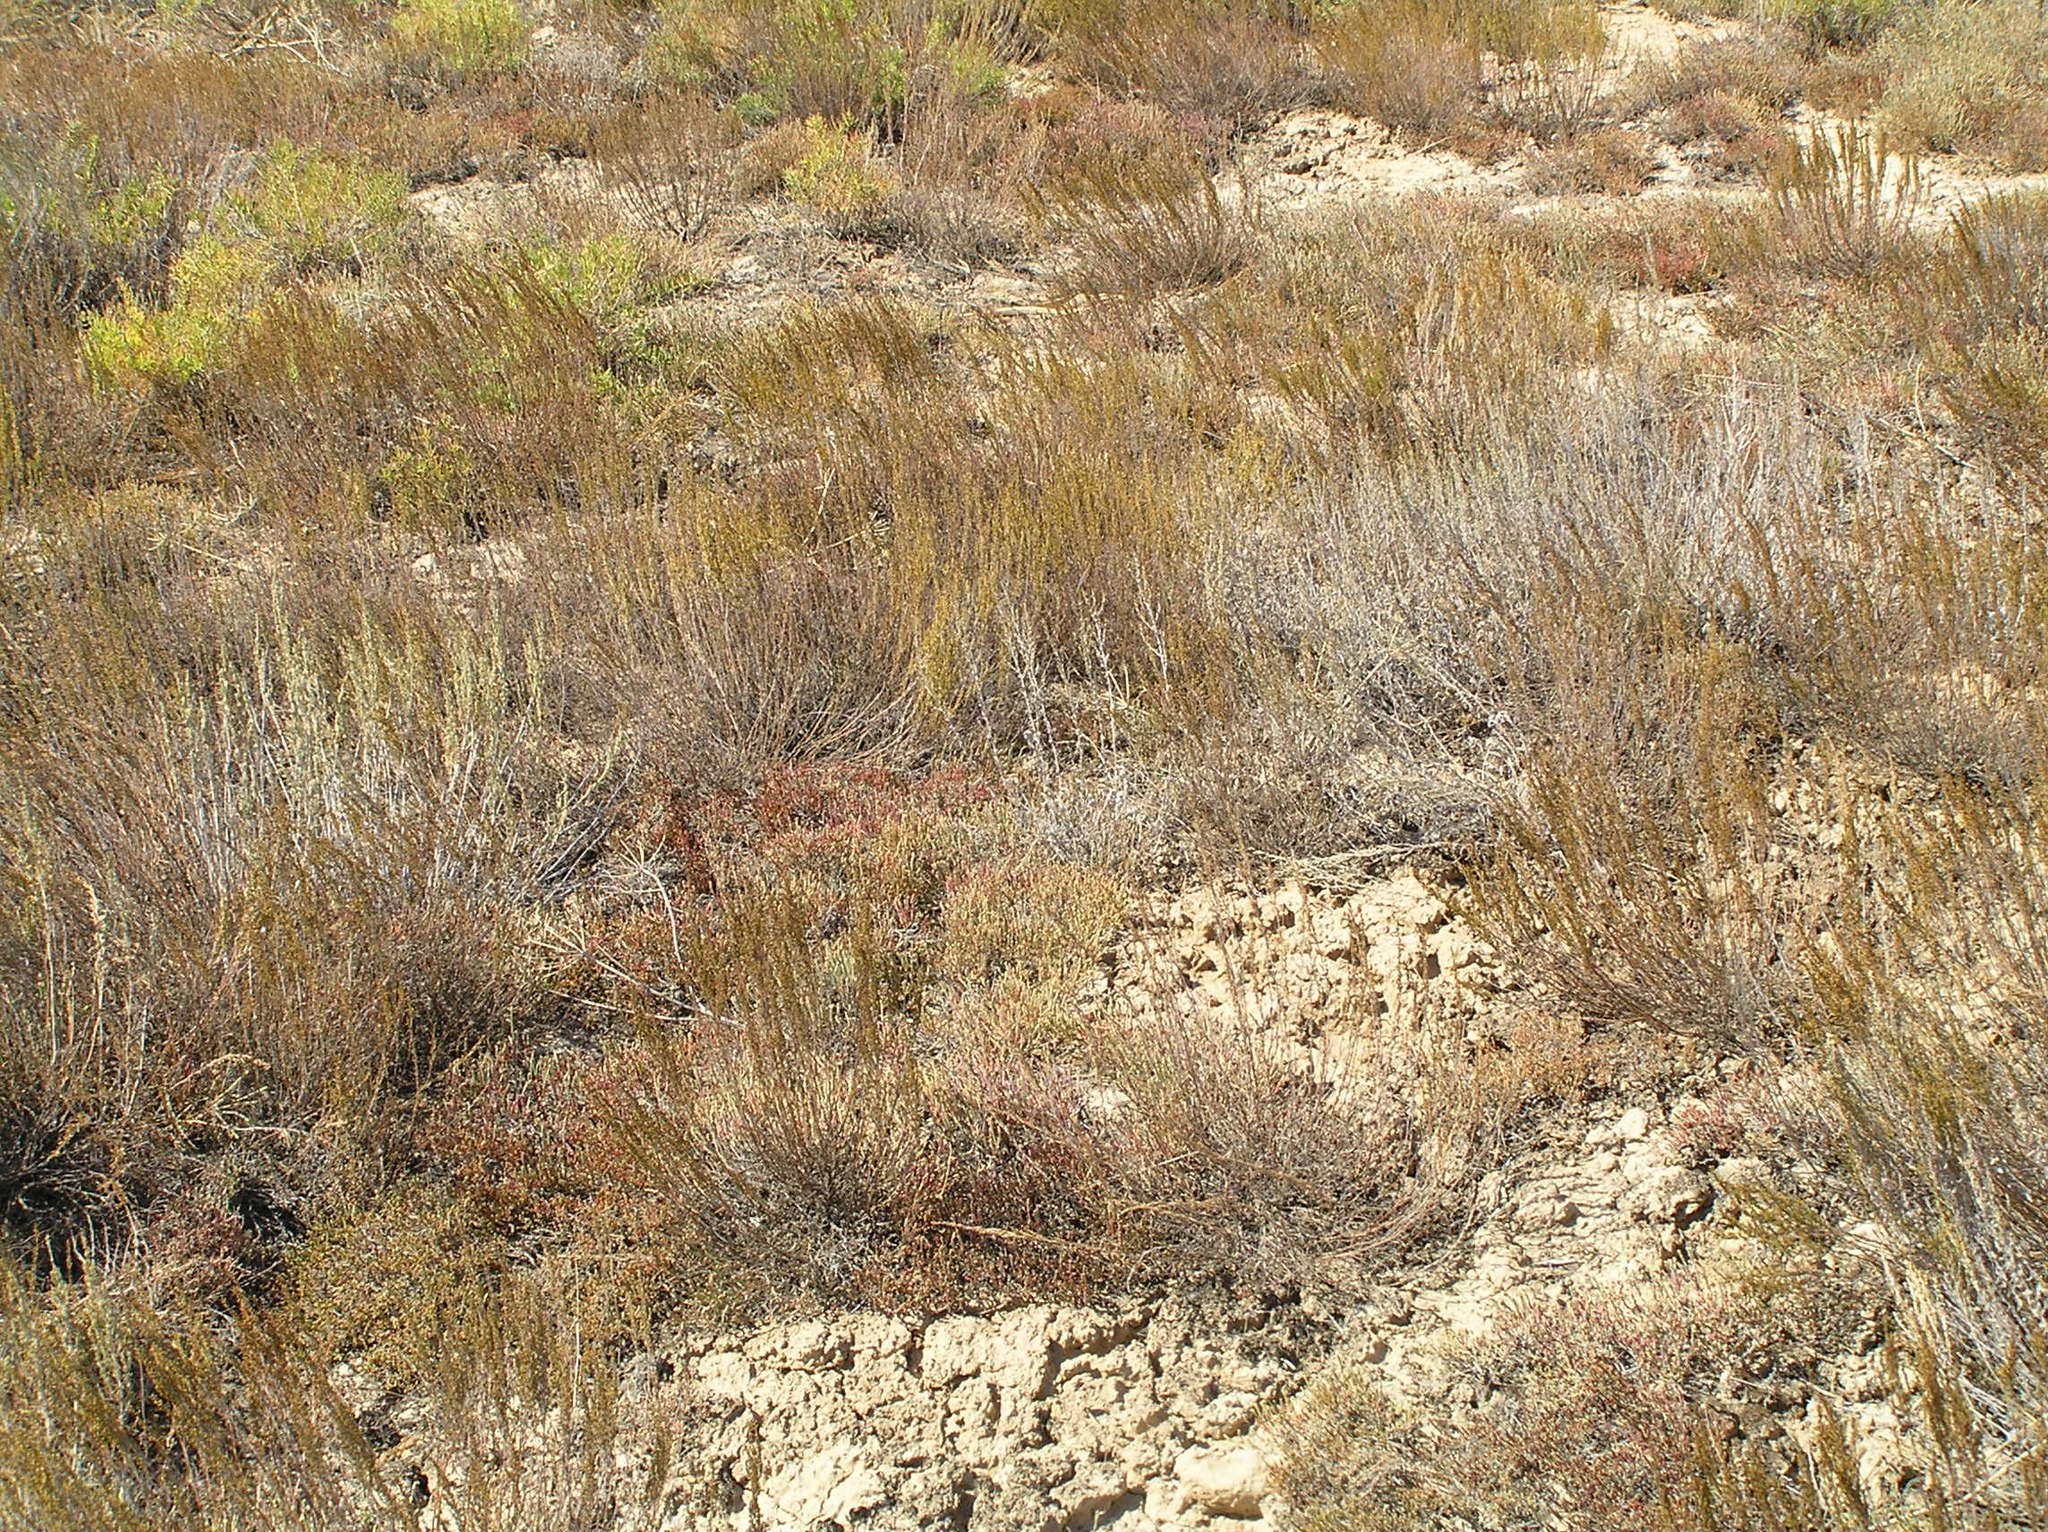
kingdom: Plantae
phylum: Tracheophyta
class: Magnoliopsida
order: Asterales
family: Asteraceae
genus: Artemisia
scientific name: Artemisia pauciflora
